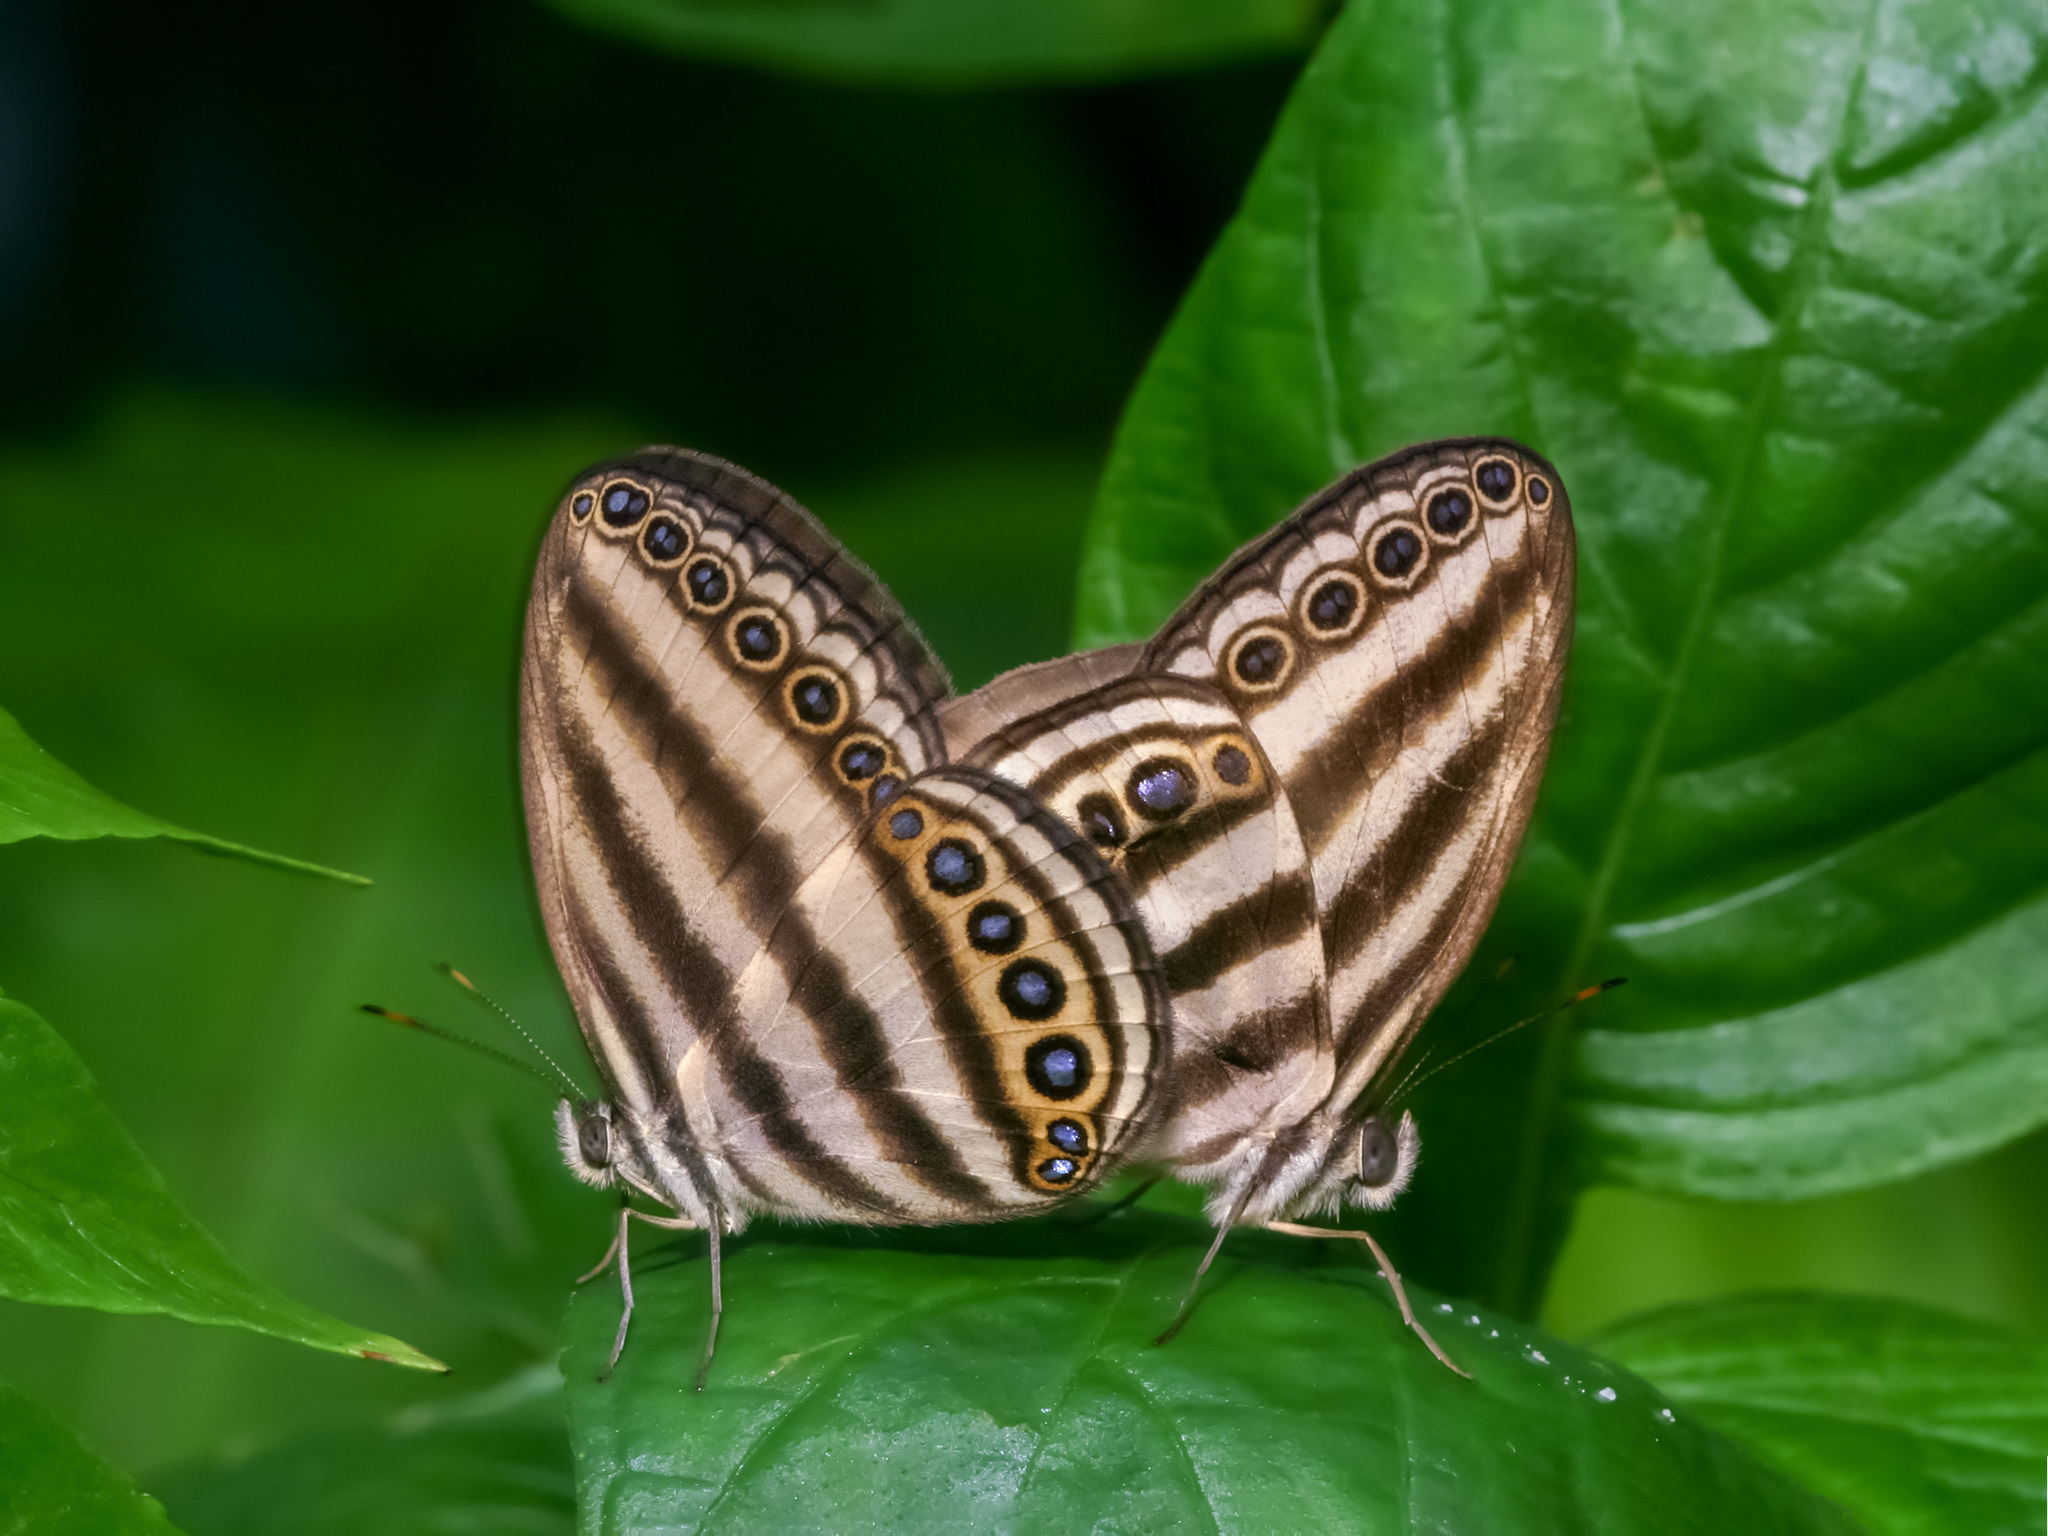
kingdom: Animalia
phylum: Arthropoda
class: Insecta
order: Lepidoptera
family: Nymphalidae
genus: Ragadia
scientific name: Ragadia makuta
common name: Striped ringlet
